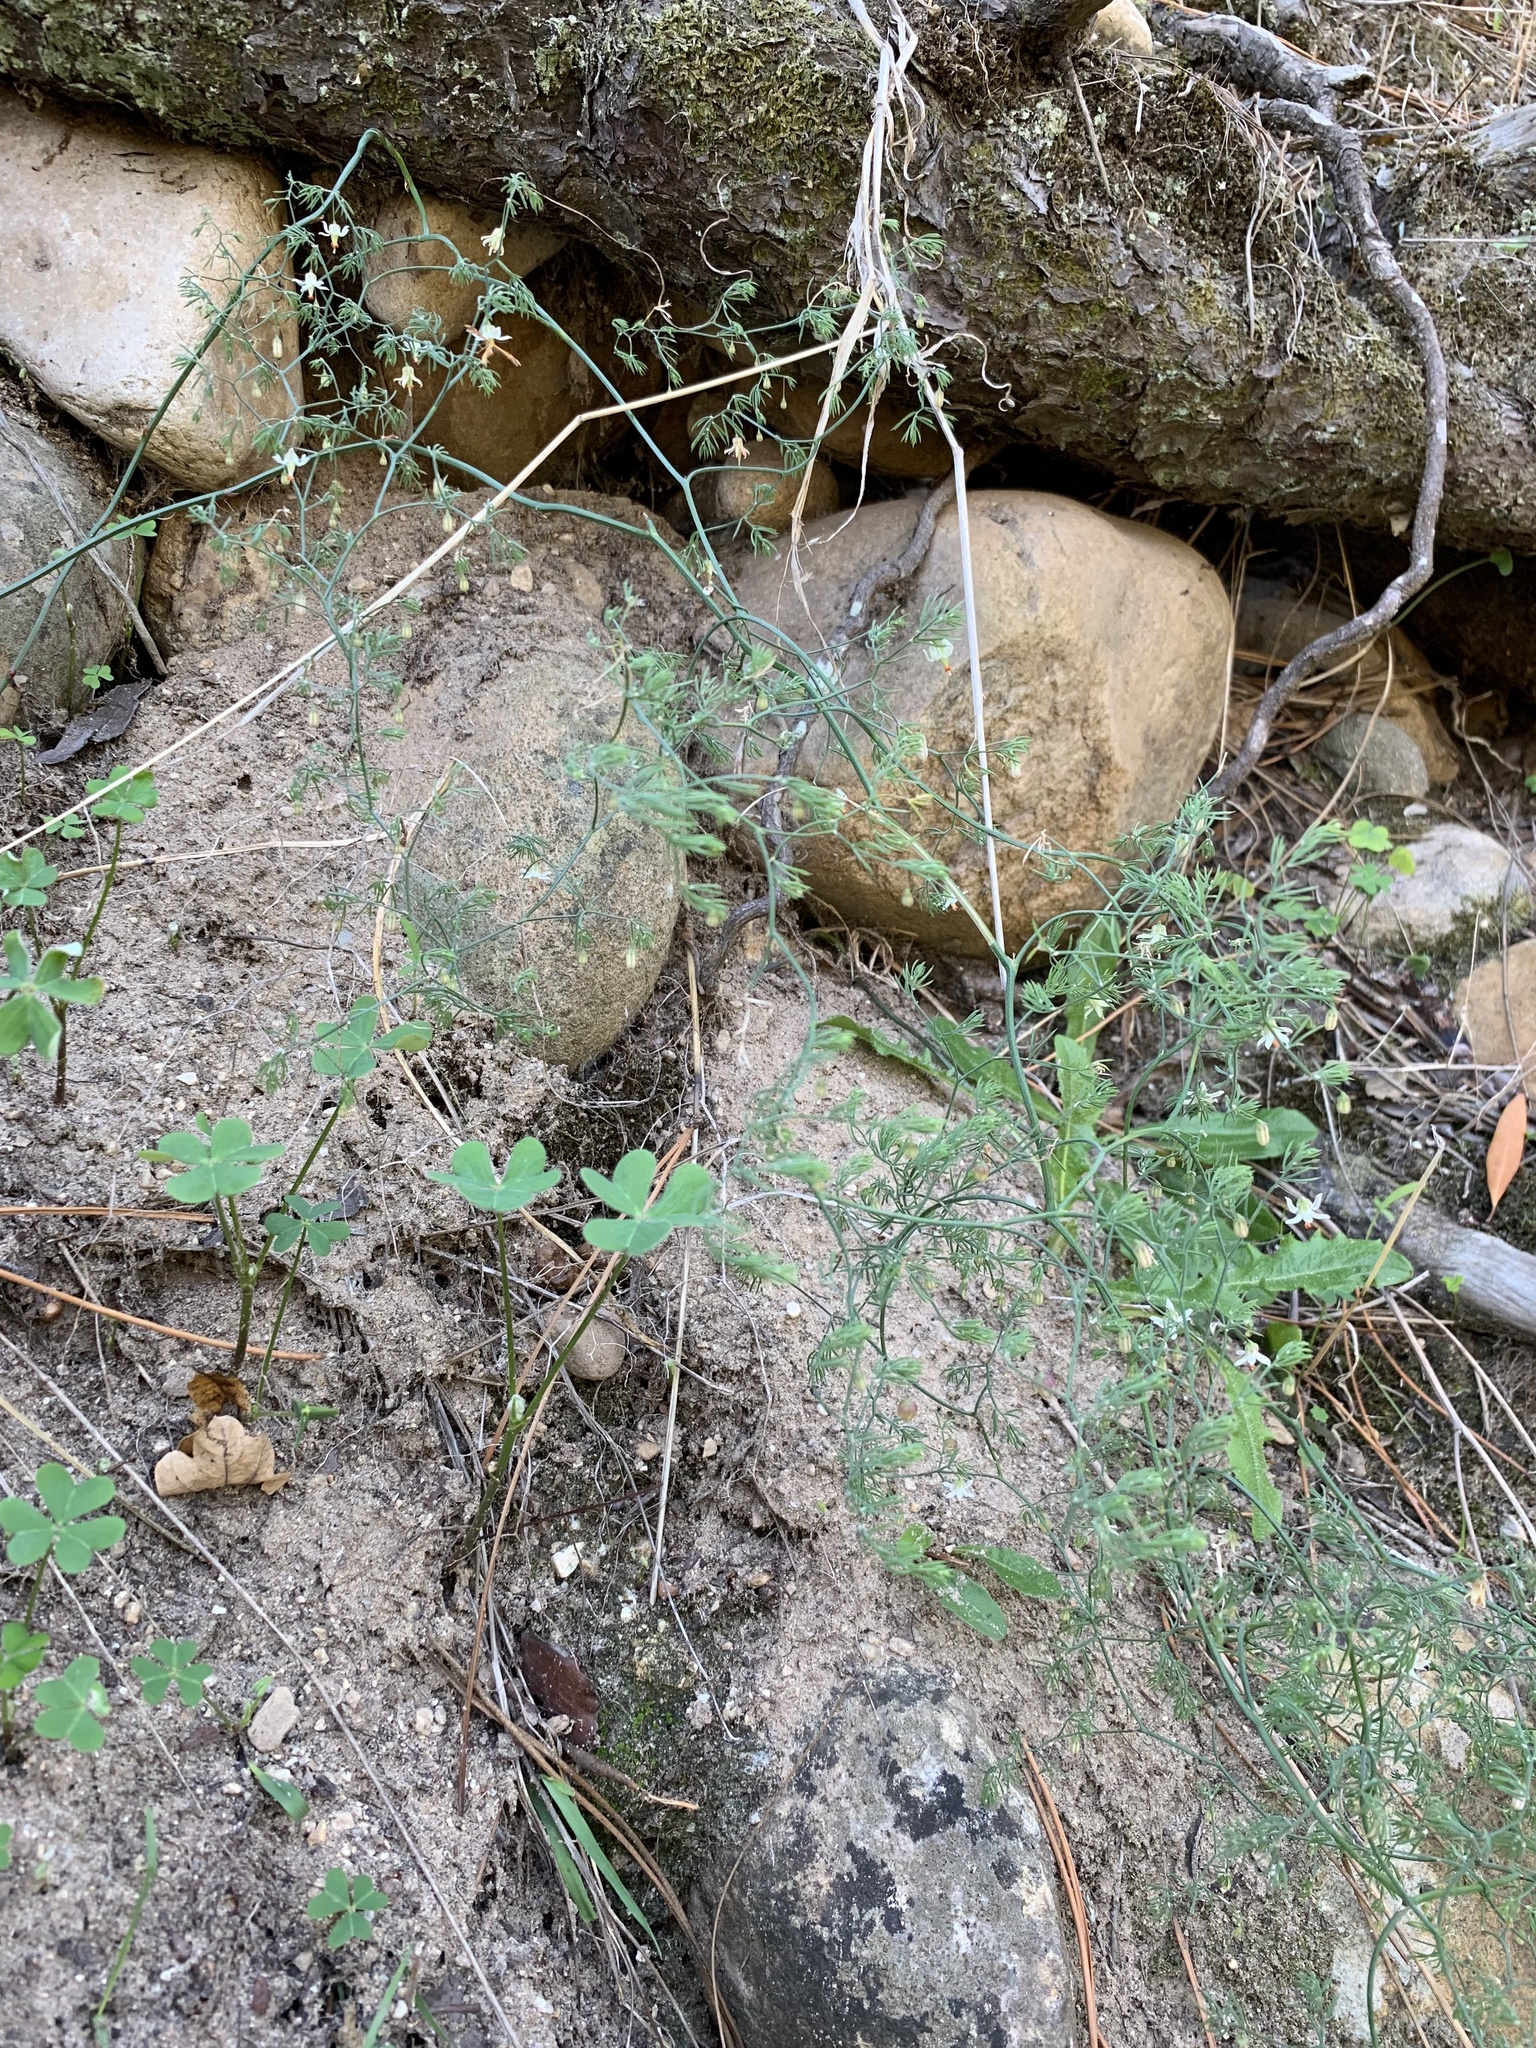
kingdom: Plantae
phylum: Tracheophyta
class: Liliopsida
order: Asparagales
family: Asparagaceae
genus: Asparagus
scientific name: Asparagus declinatus
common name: Bridal-creeper
